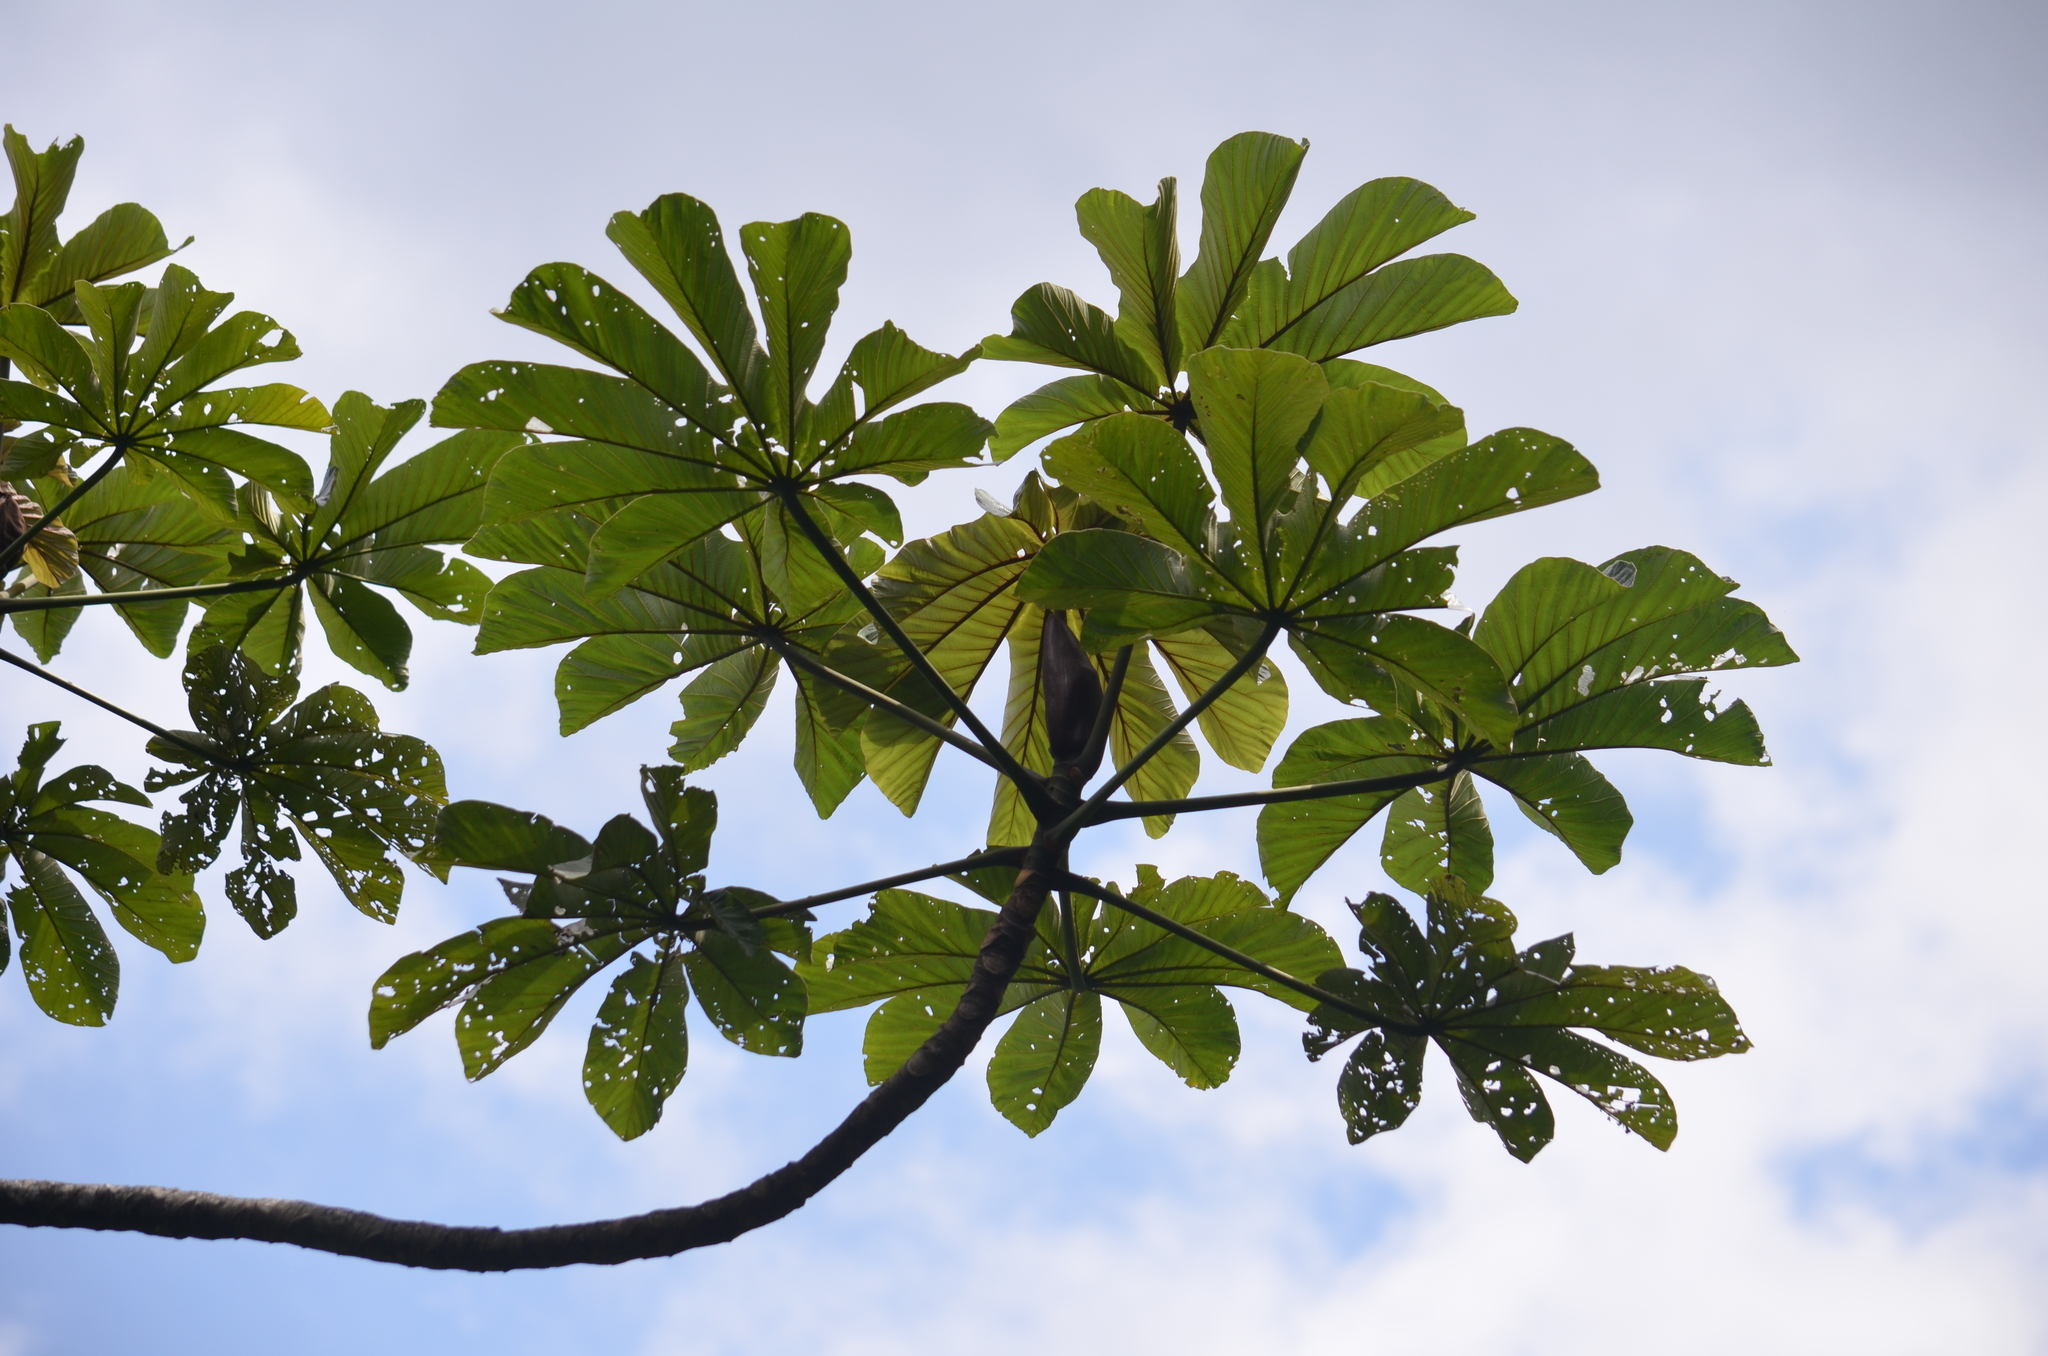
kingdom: Plantae
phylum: Tracheophyta
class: Magnoliopsida
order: Rosales
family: Urticaceae
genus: Cecropia
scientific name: Cecropia glaziovii
